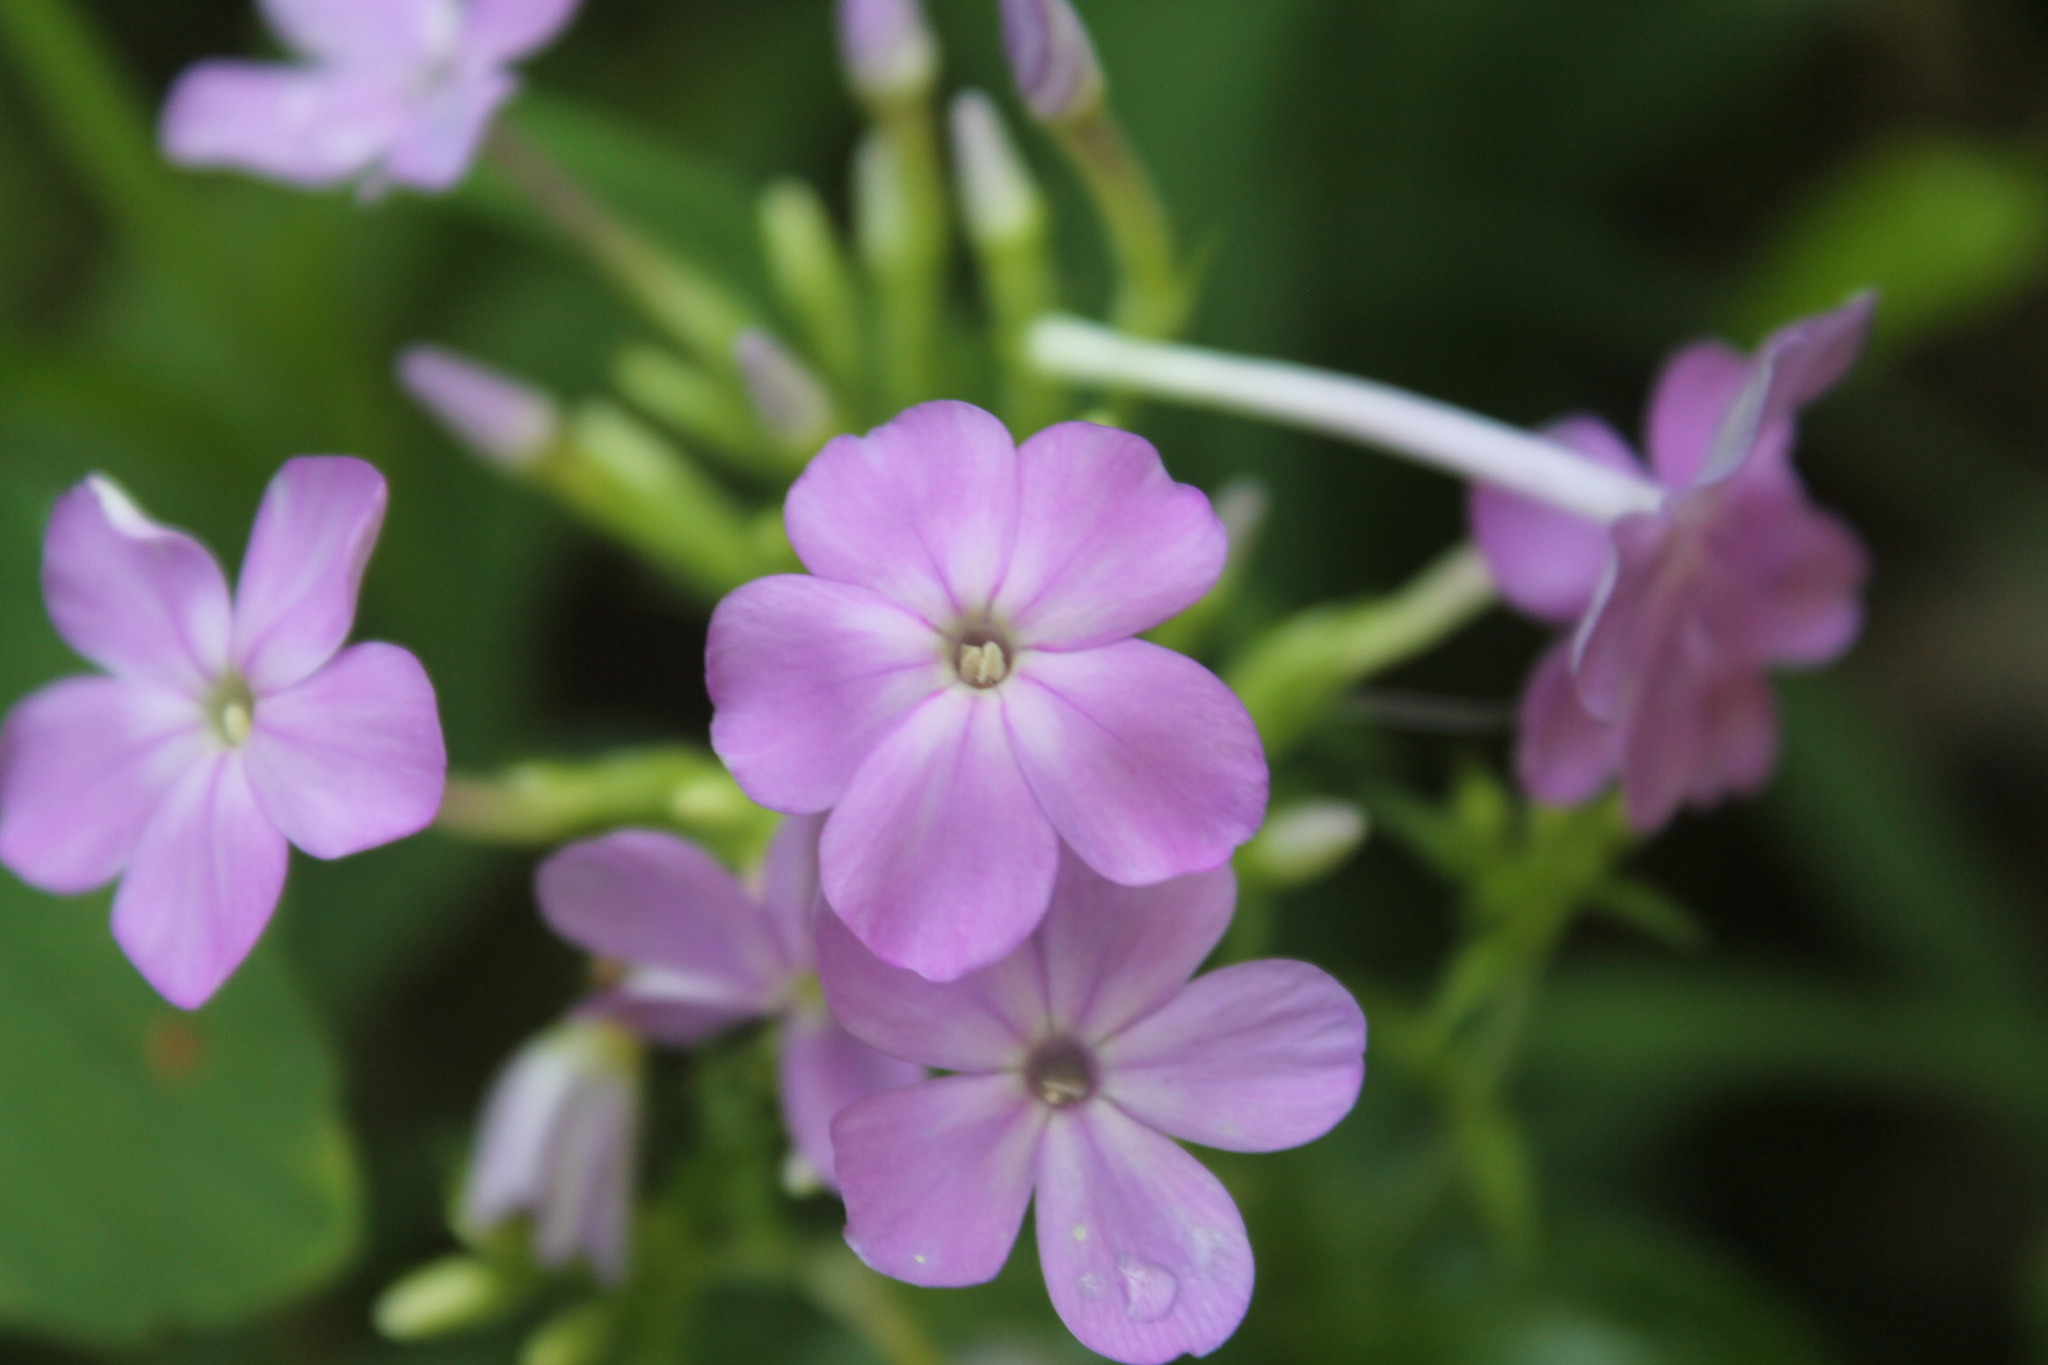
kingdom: Plantae
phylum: Tracheophyta
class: Magnoliopsida
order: Ericales
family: Polemoniaceae
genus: Phlox
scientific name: Phlox paniculata
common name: Fall phlox
